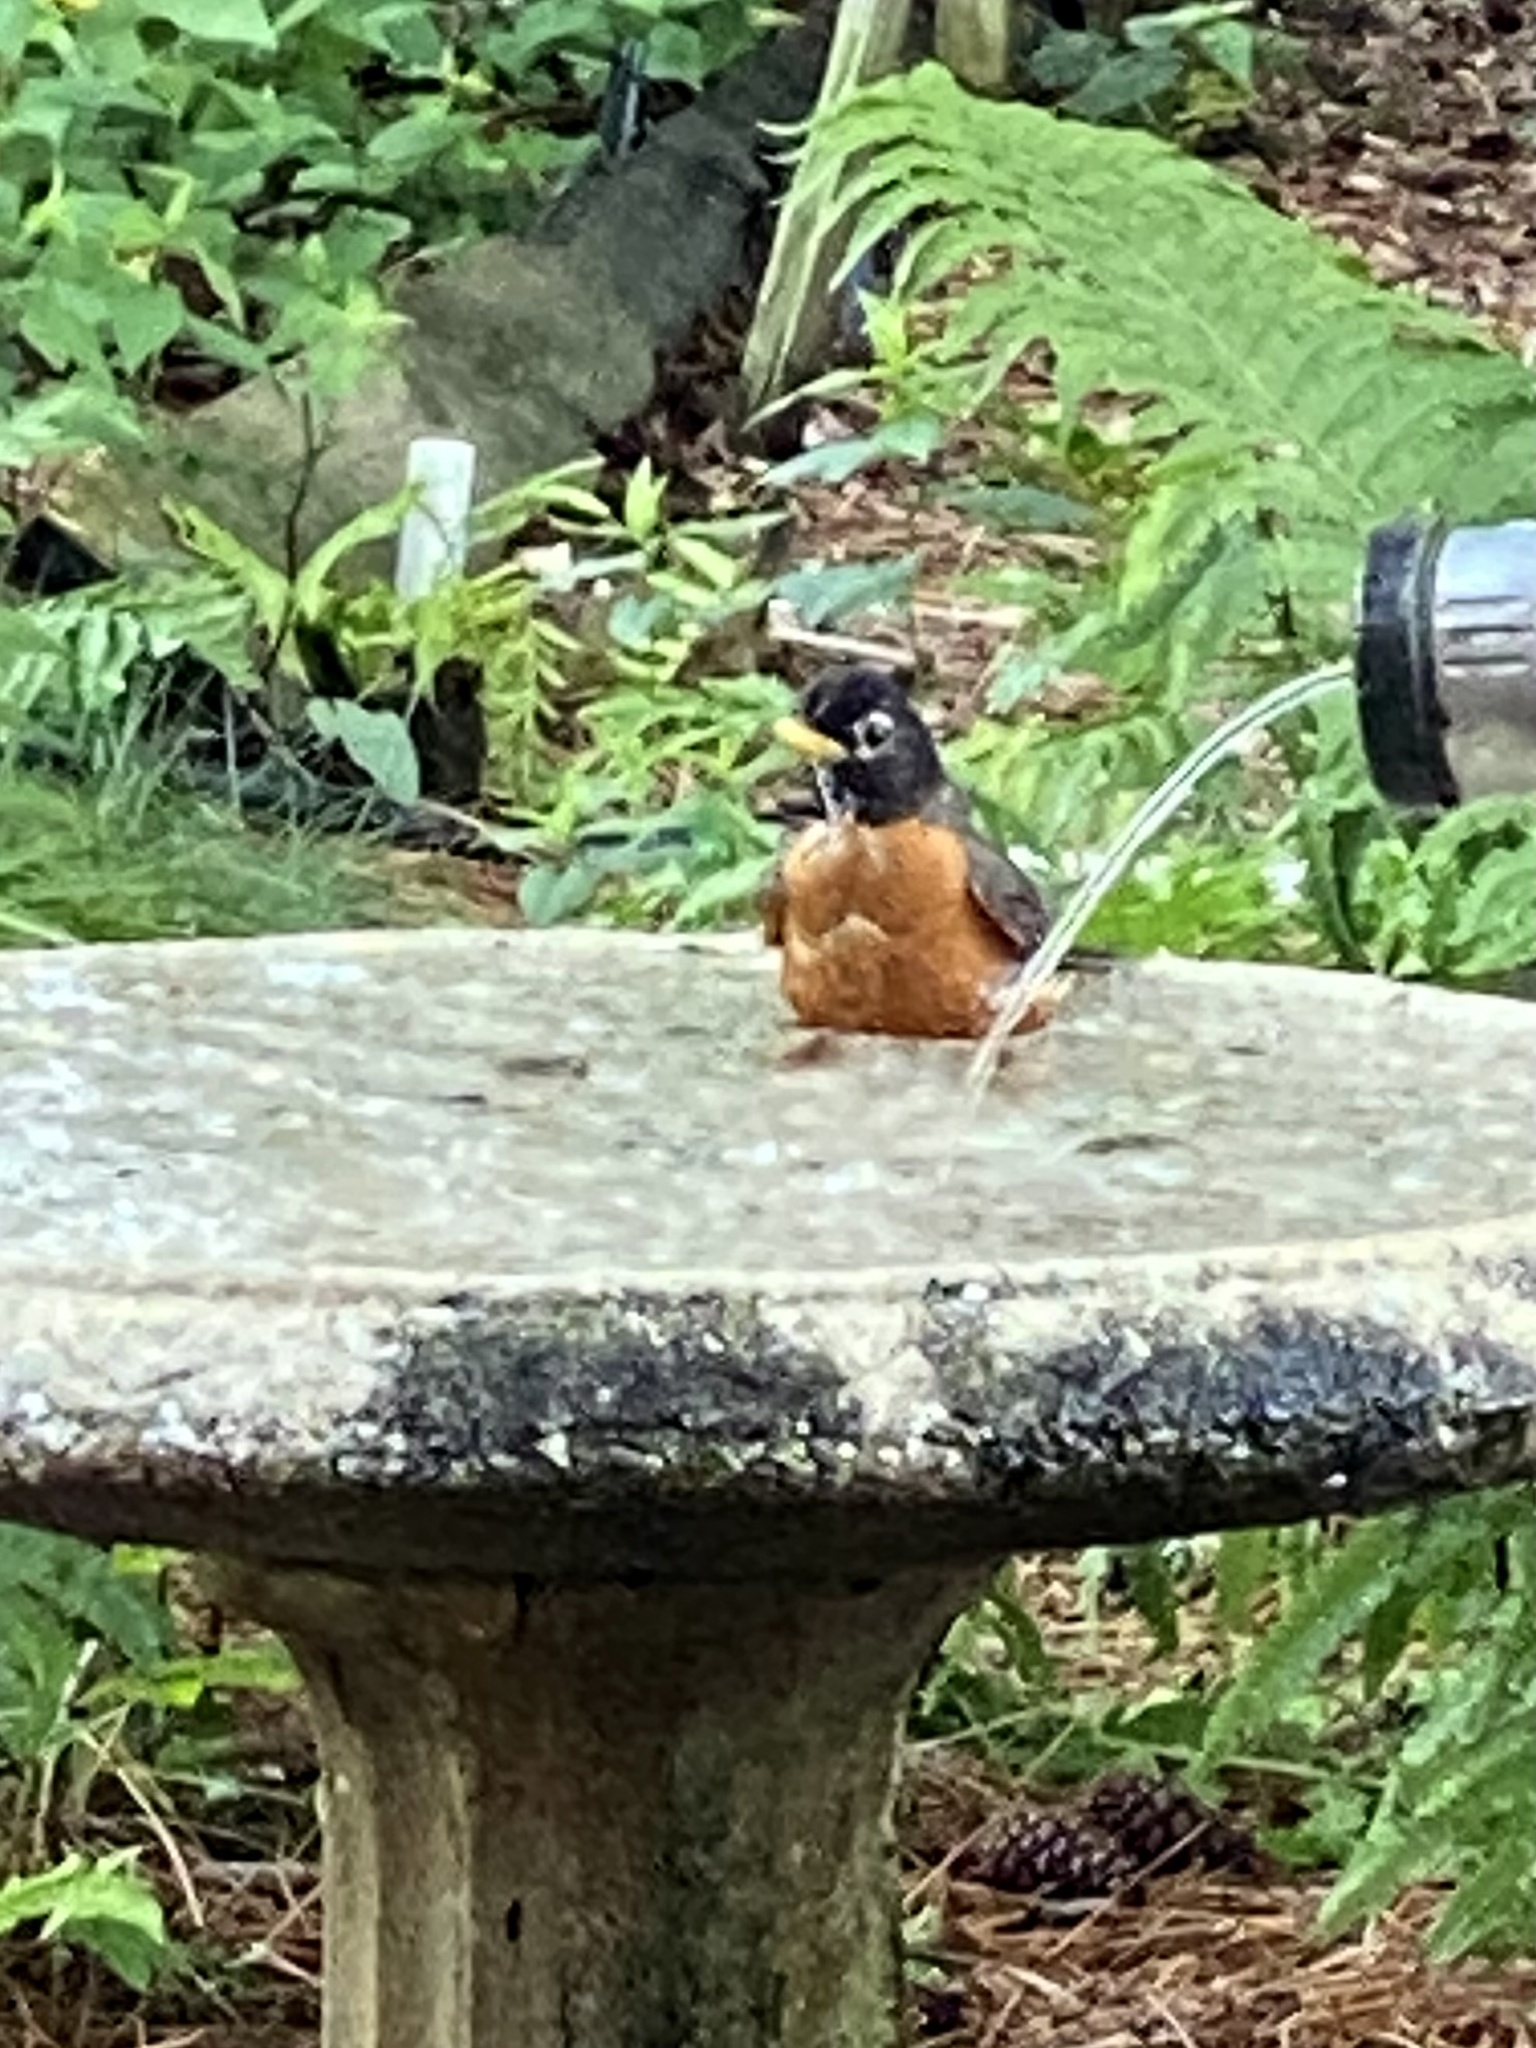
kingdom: Animalia
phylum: Chordata
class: Aves
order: Passeriformes
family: Turdidae
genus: Turdus
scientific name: Turdus migratorius
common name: American robin
